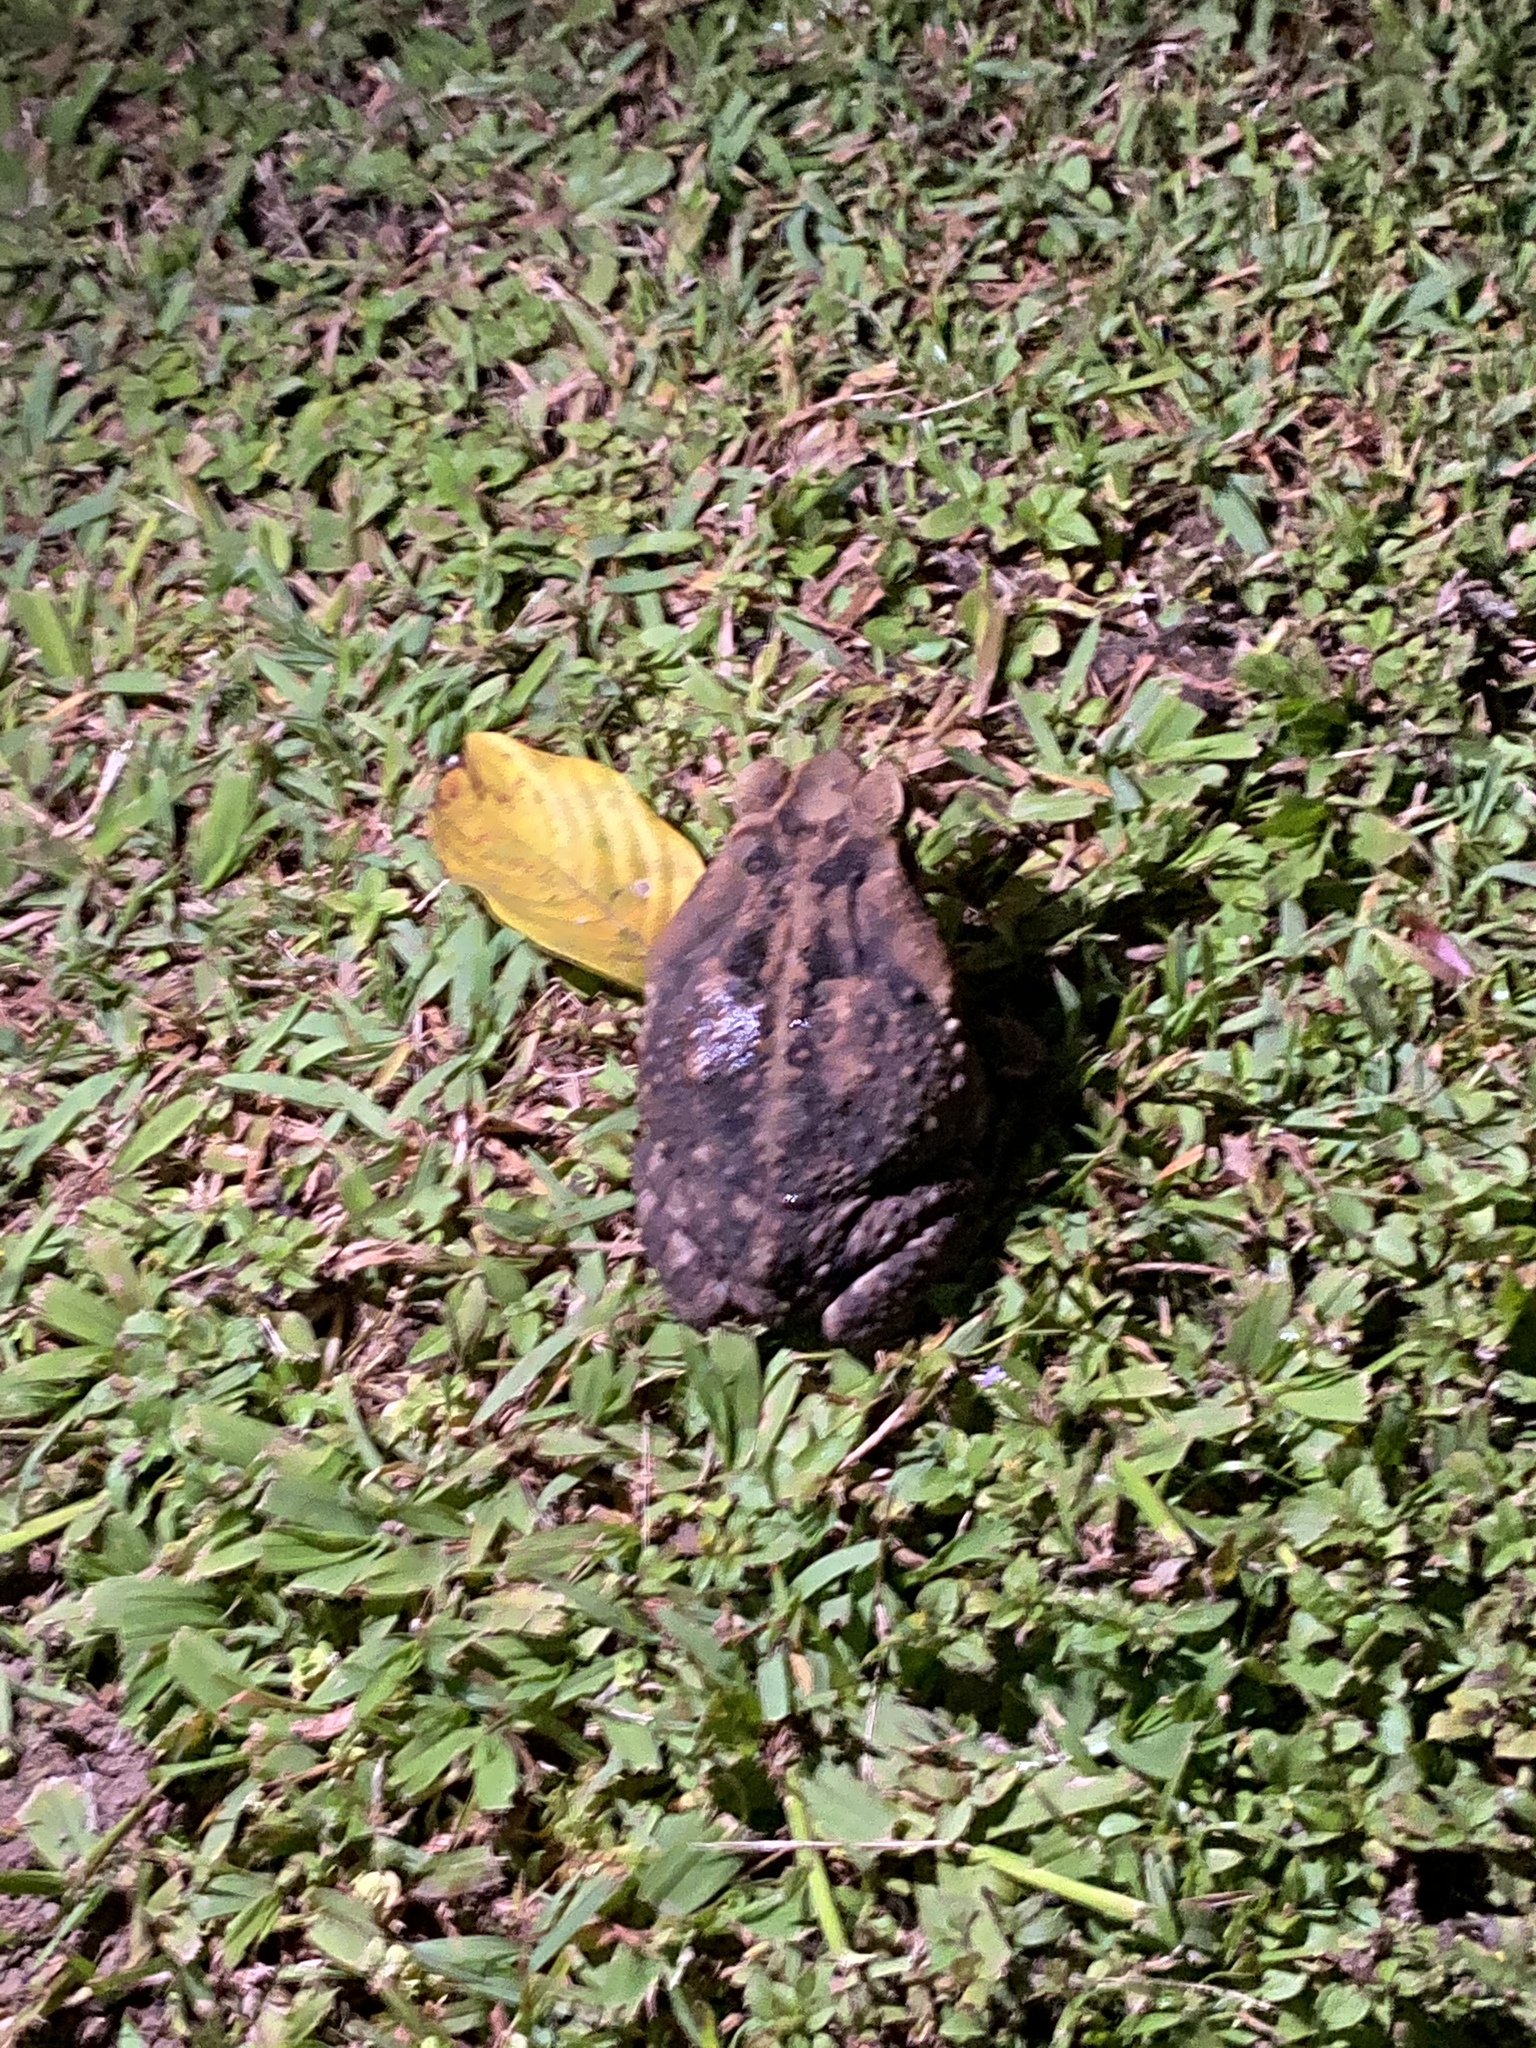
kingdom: Animalia
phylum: Chordata
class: Amphibia
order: Anura
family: Bufonidae
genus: Rhinella
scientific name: Rhinella horribilis
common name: Mesoamerican cane toad
